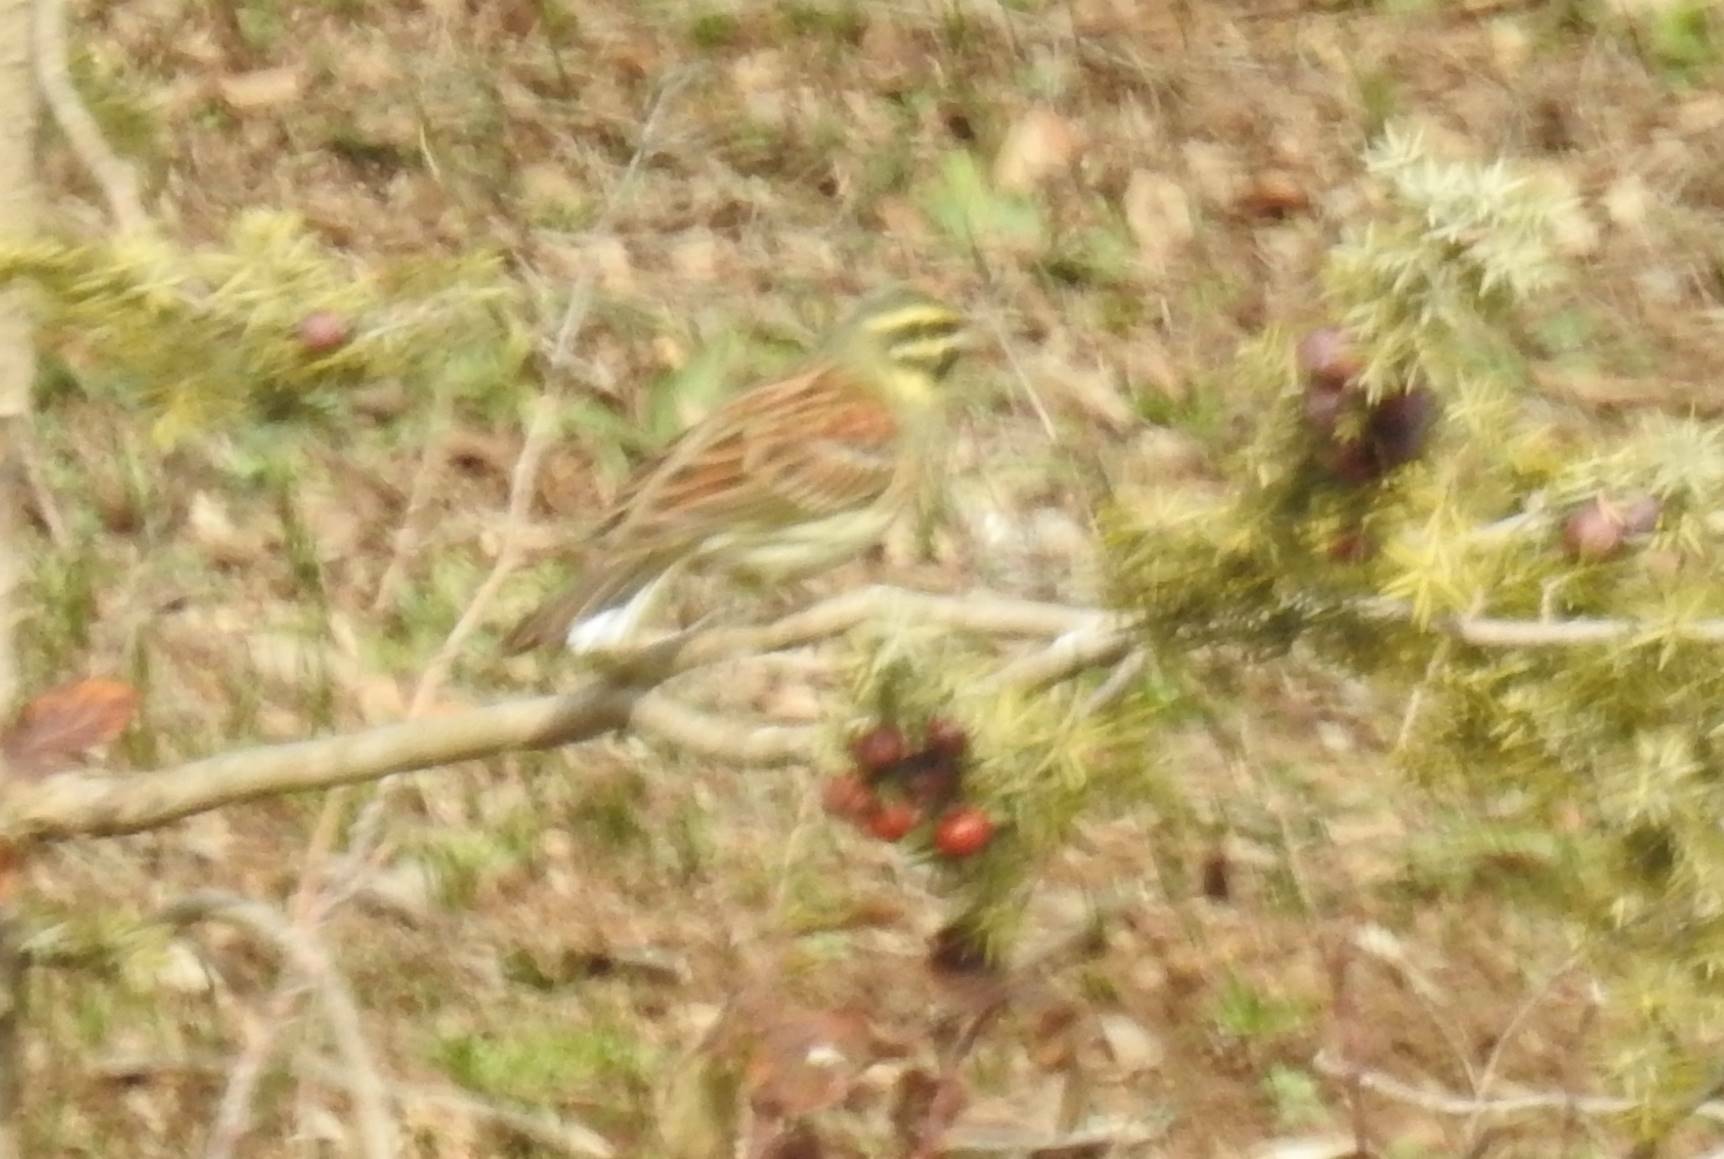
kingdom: Animalia
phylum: Chordata
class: Aves
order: Passeriformes
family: Emberizidae
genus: Emberiza
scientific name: Emberiza cirlus
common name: Cirl bunting
